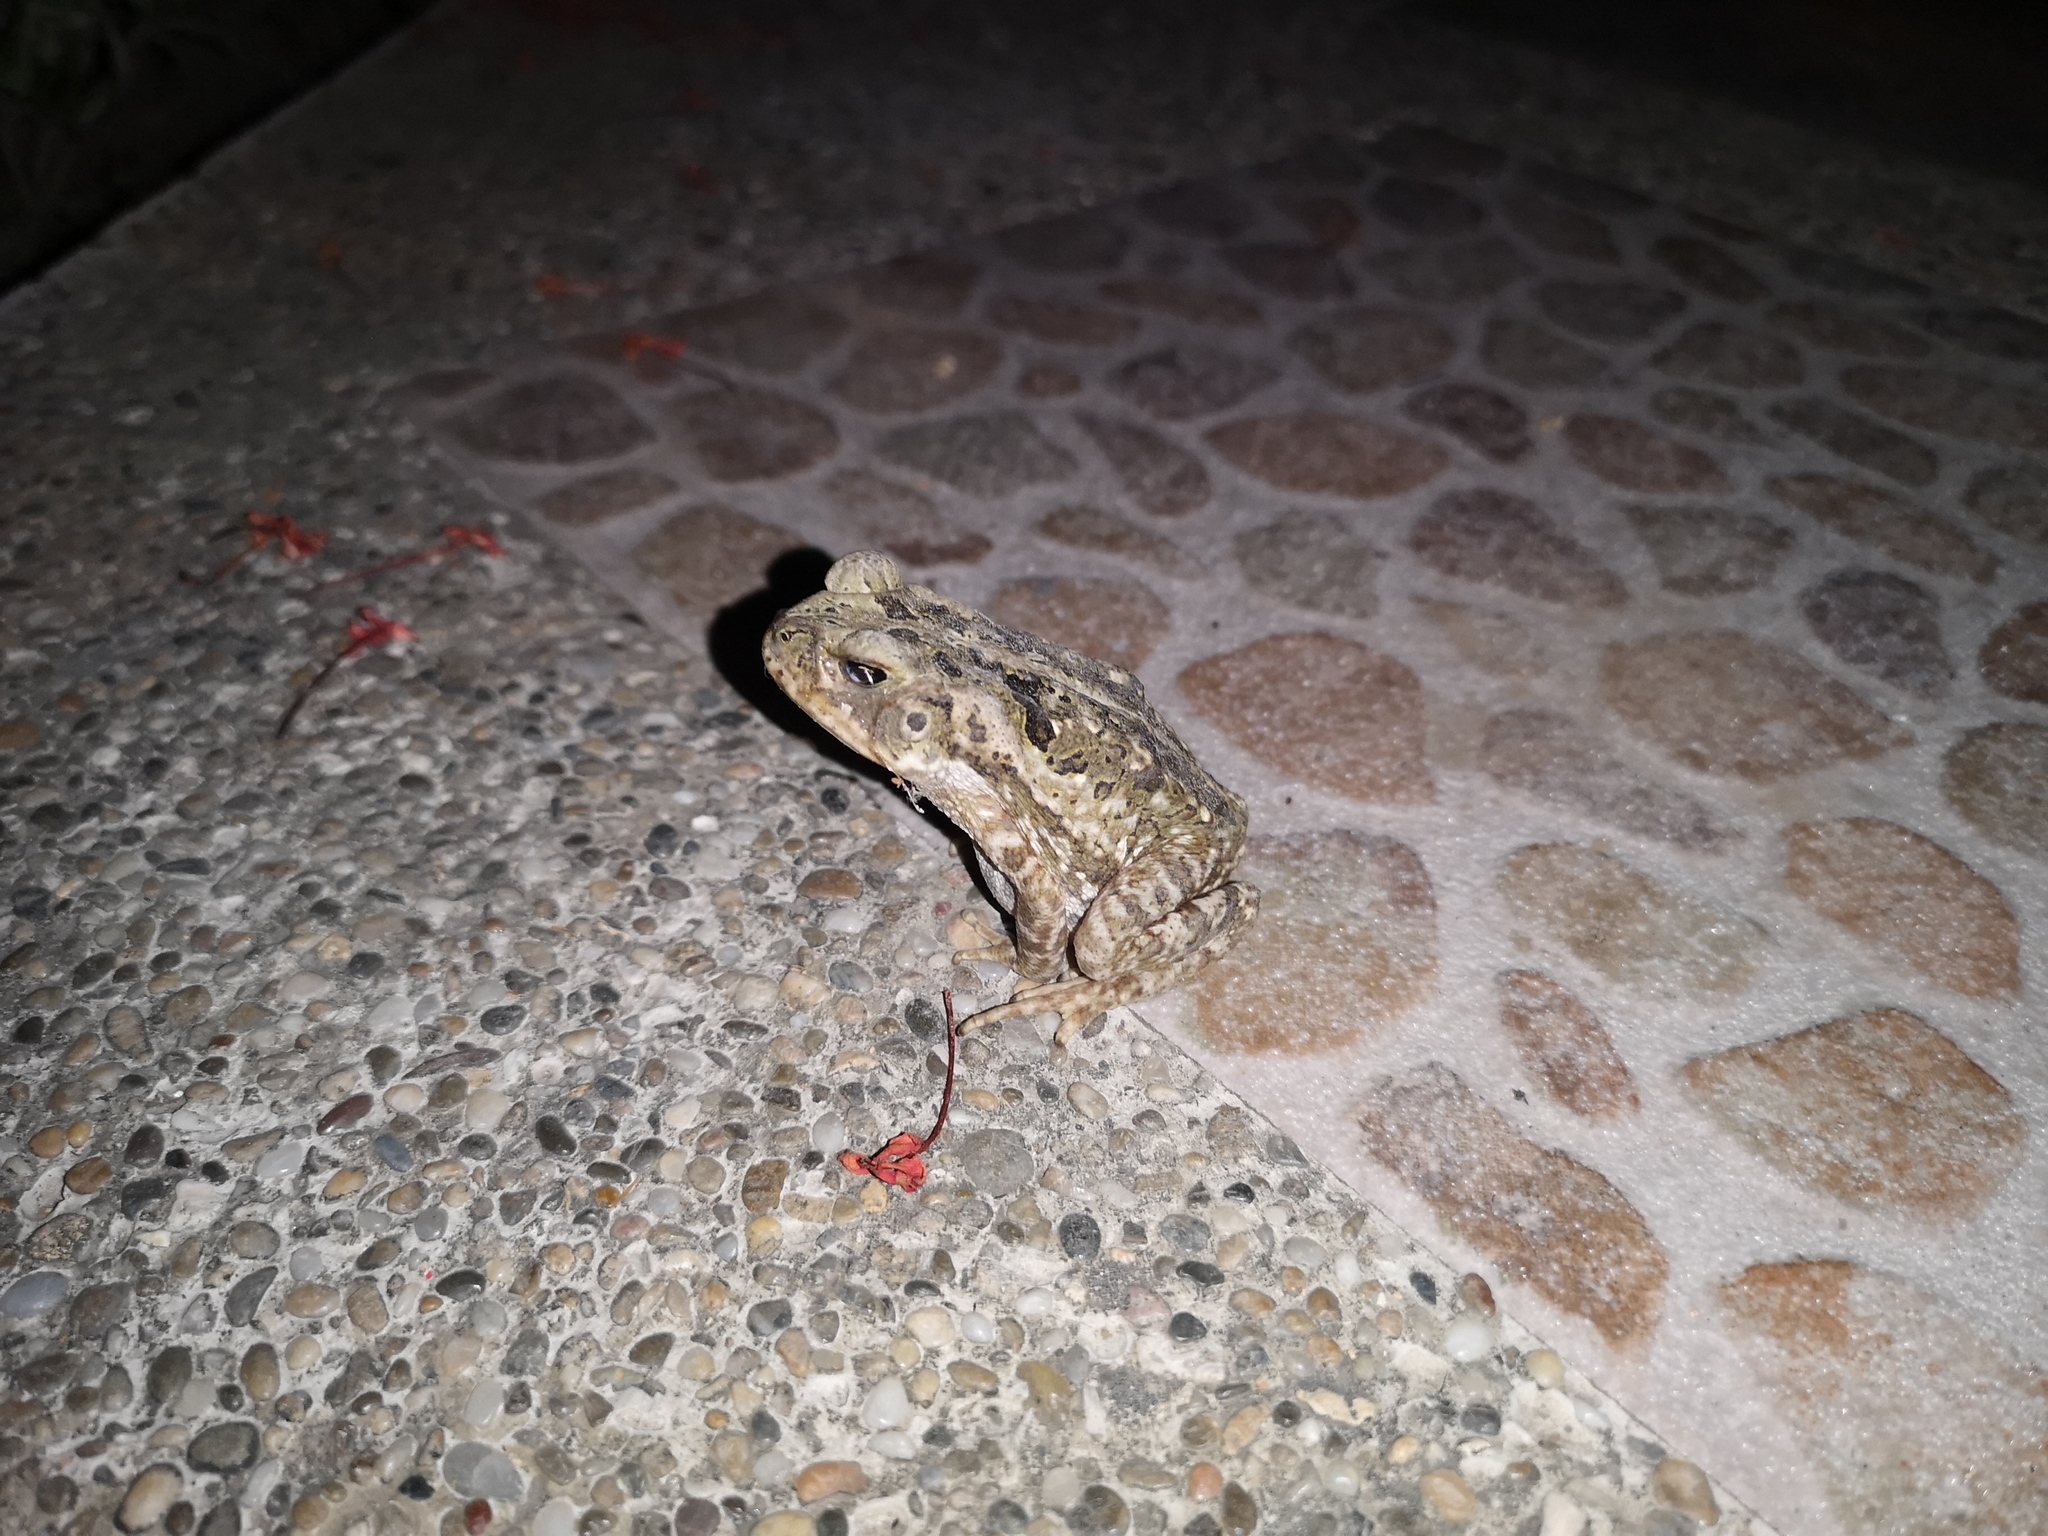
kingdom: Animalia
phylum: Chordata
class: Amphibia
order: Anura
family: Bufonidae
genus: Rhinella
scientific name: Rhinella
